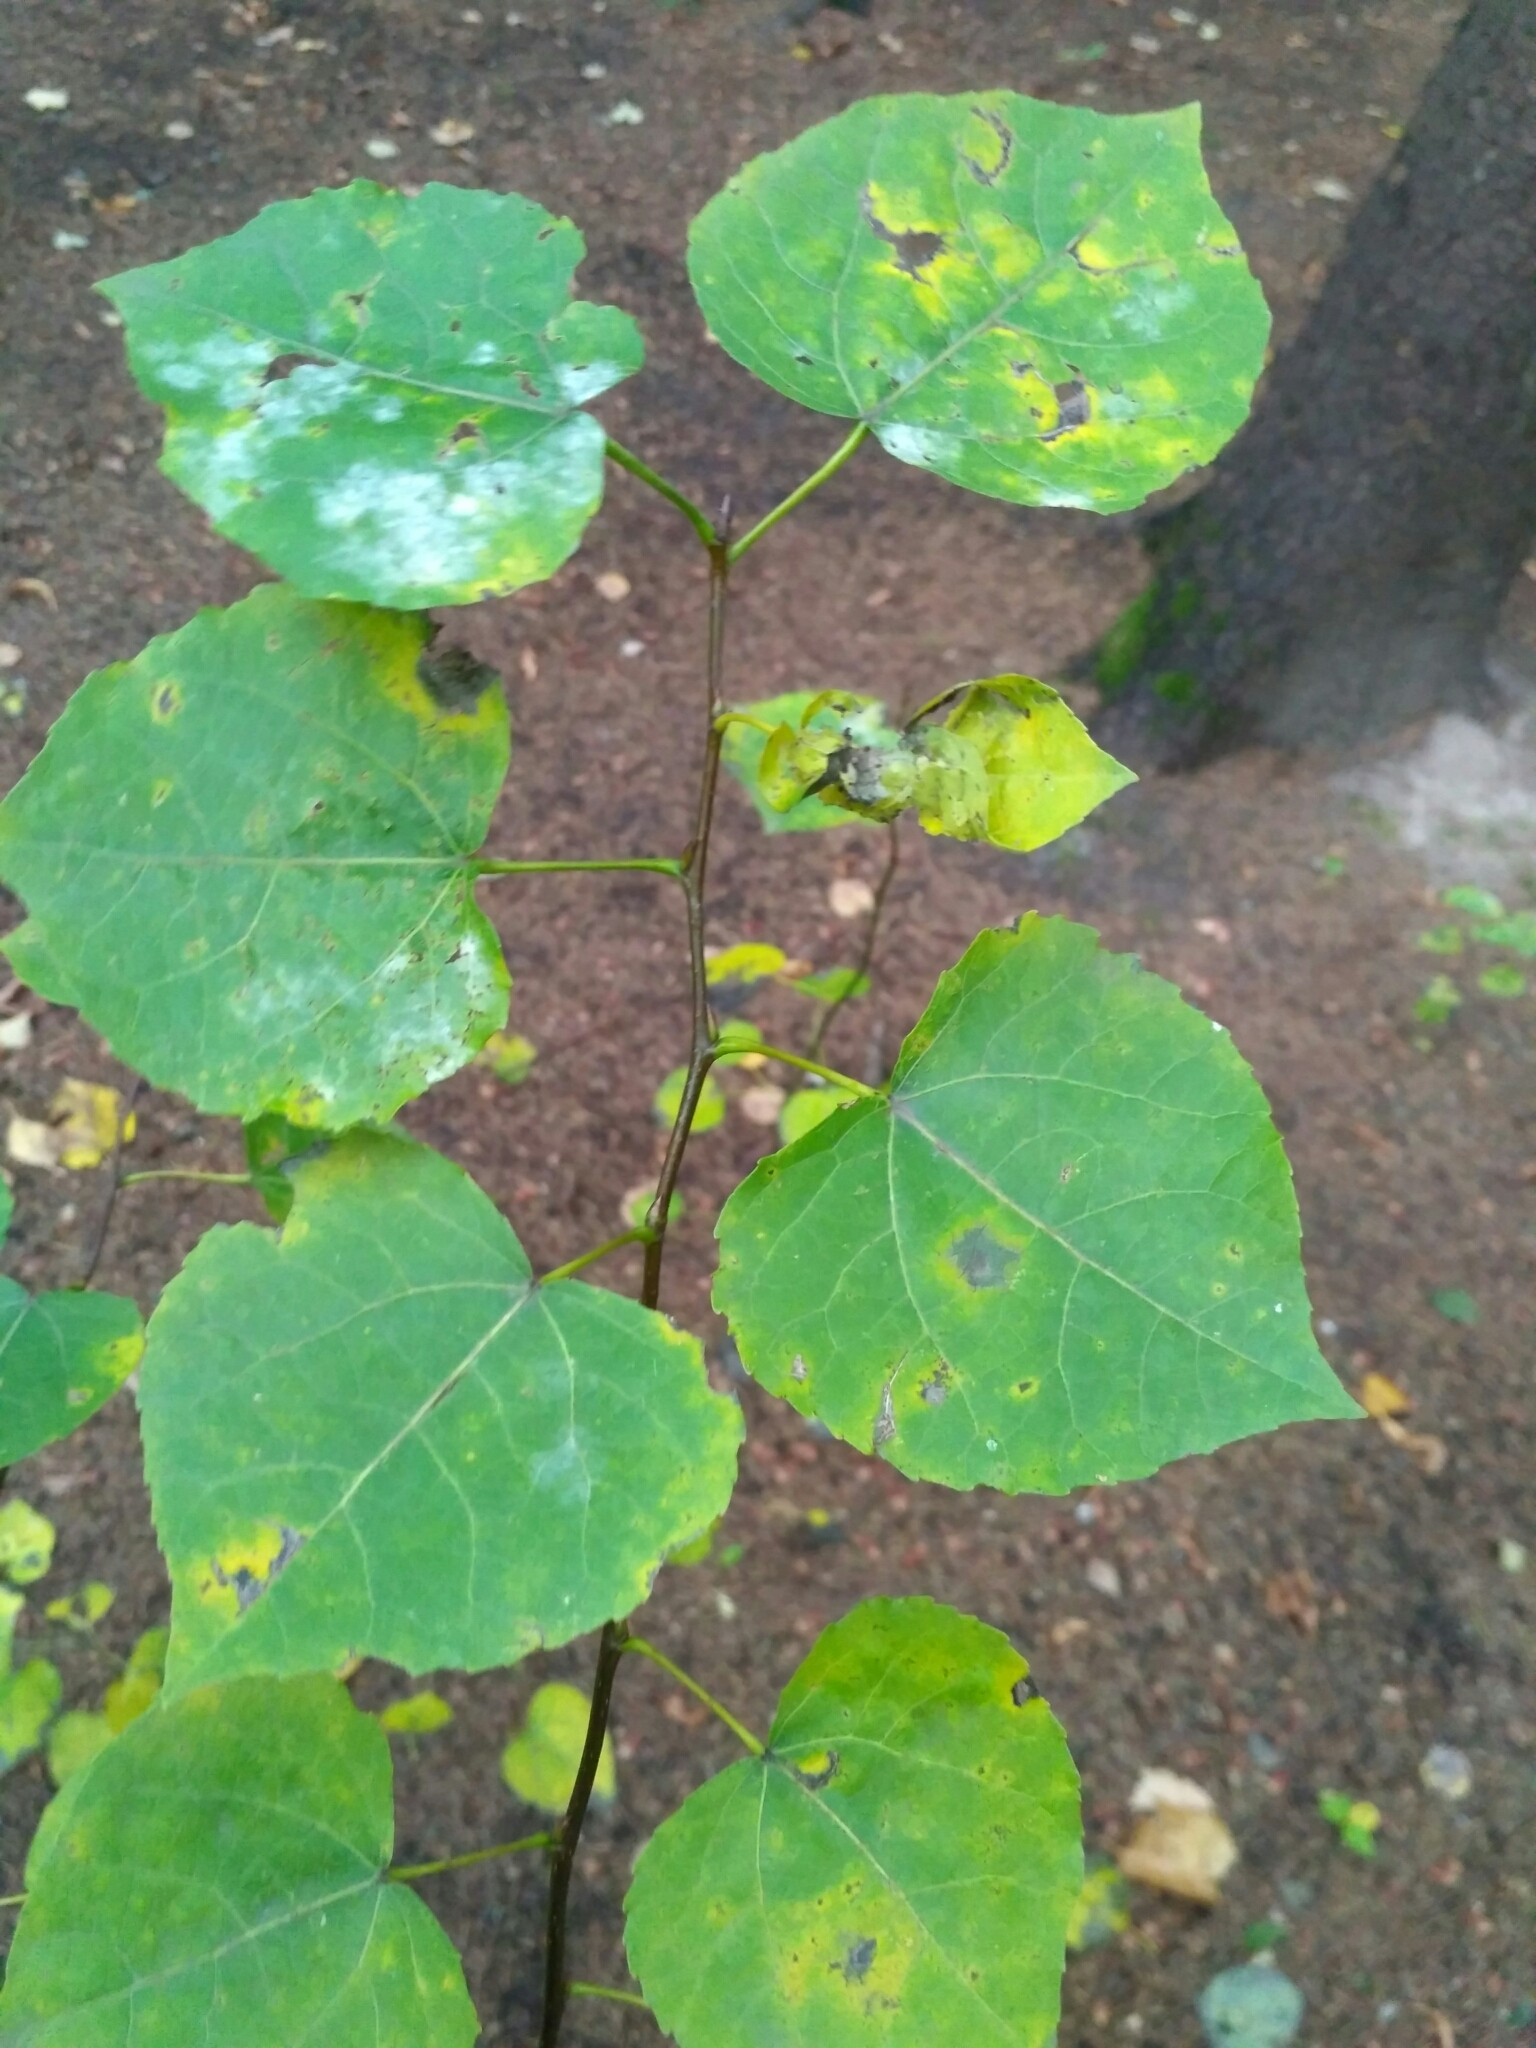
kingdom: Plantae
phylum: Tracheophyta
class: Magnoliopsida
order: Malpighiales
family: Salicaceae
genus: Populus
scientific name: Populus tremula
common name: European aspen
